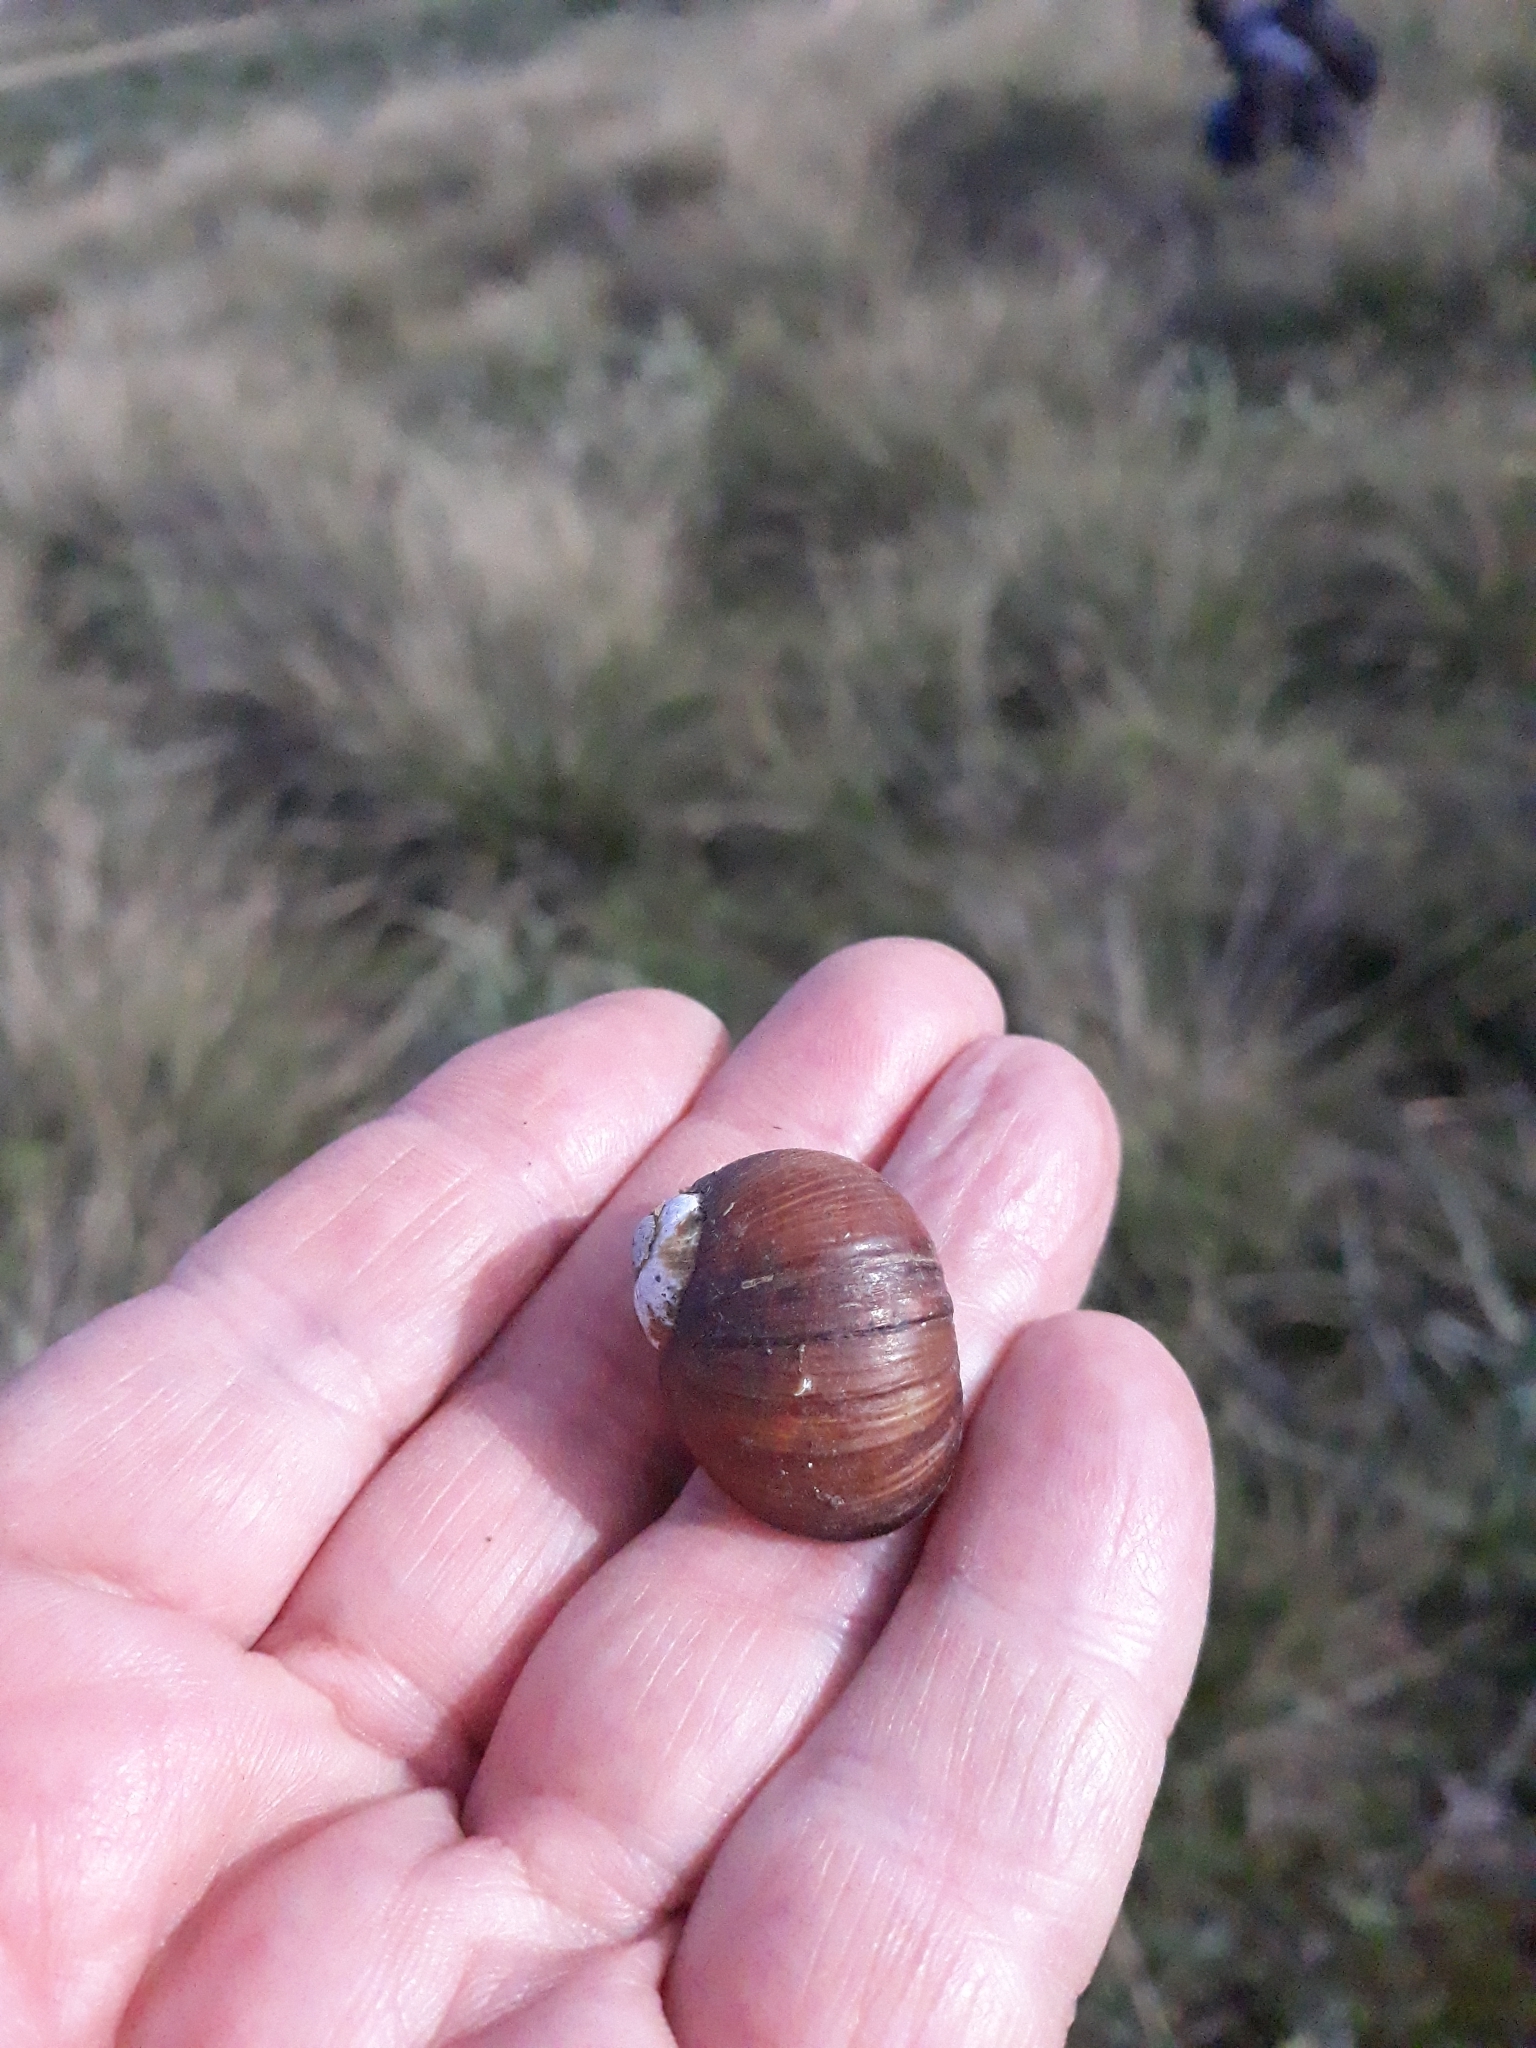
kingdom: Animalia
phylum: Mollusca
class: Gastropoda
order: Stylommatophora
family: Helicidae
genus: Cantareus
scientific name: Cantareus apertus
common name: Green gardensnail
